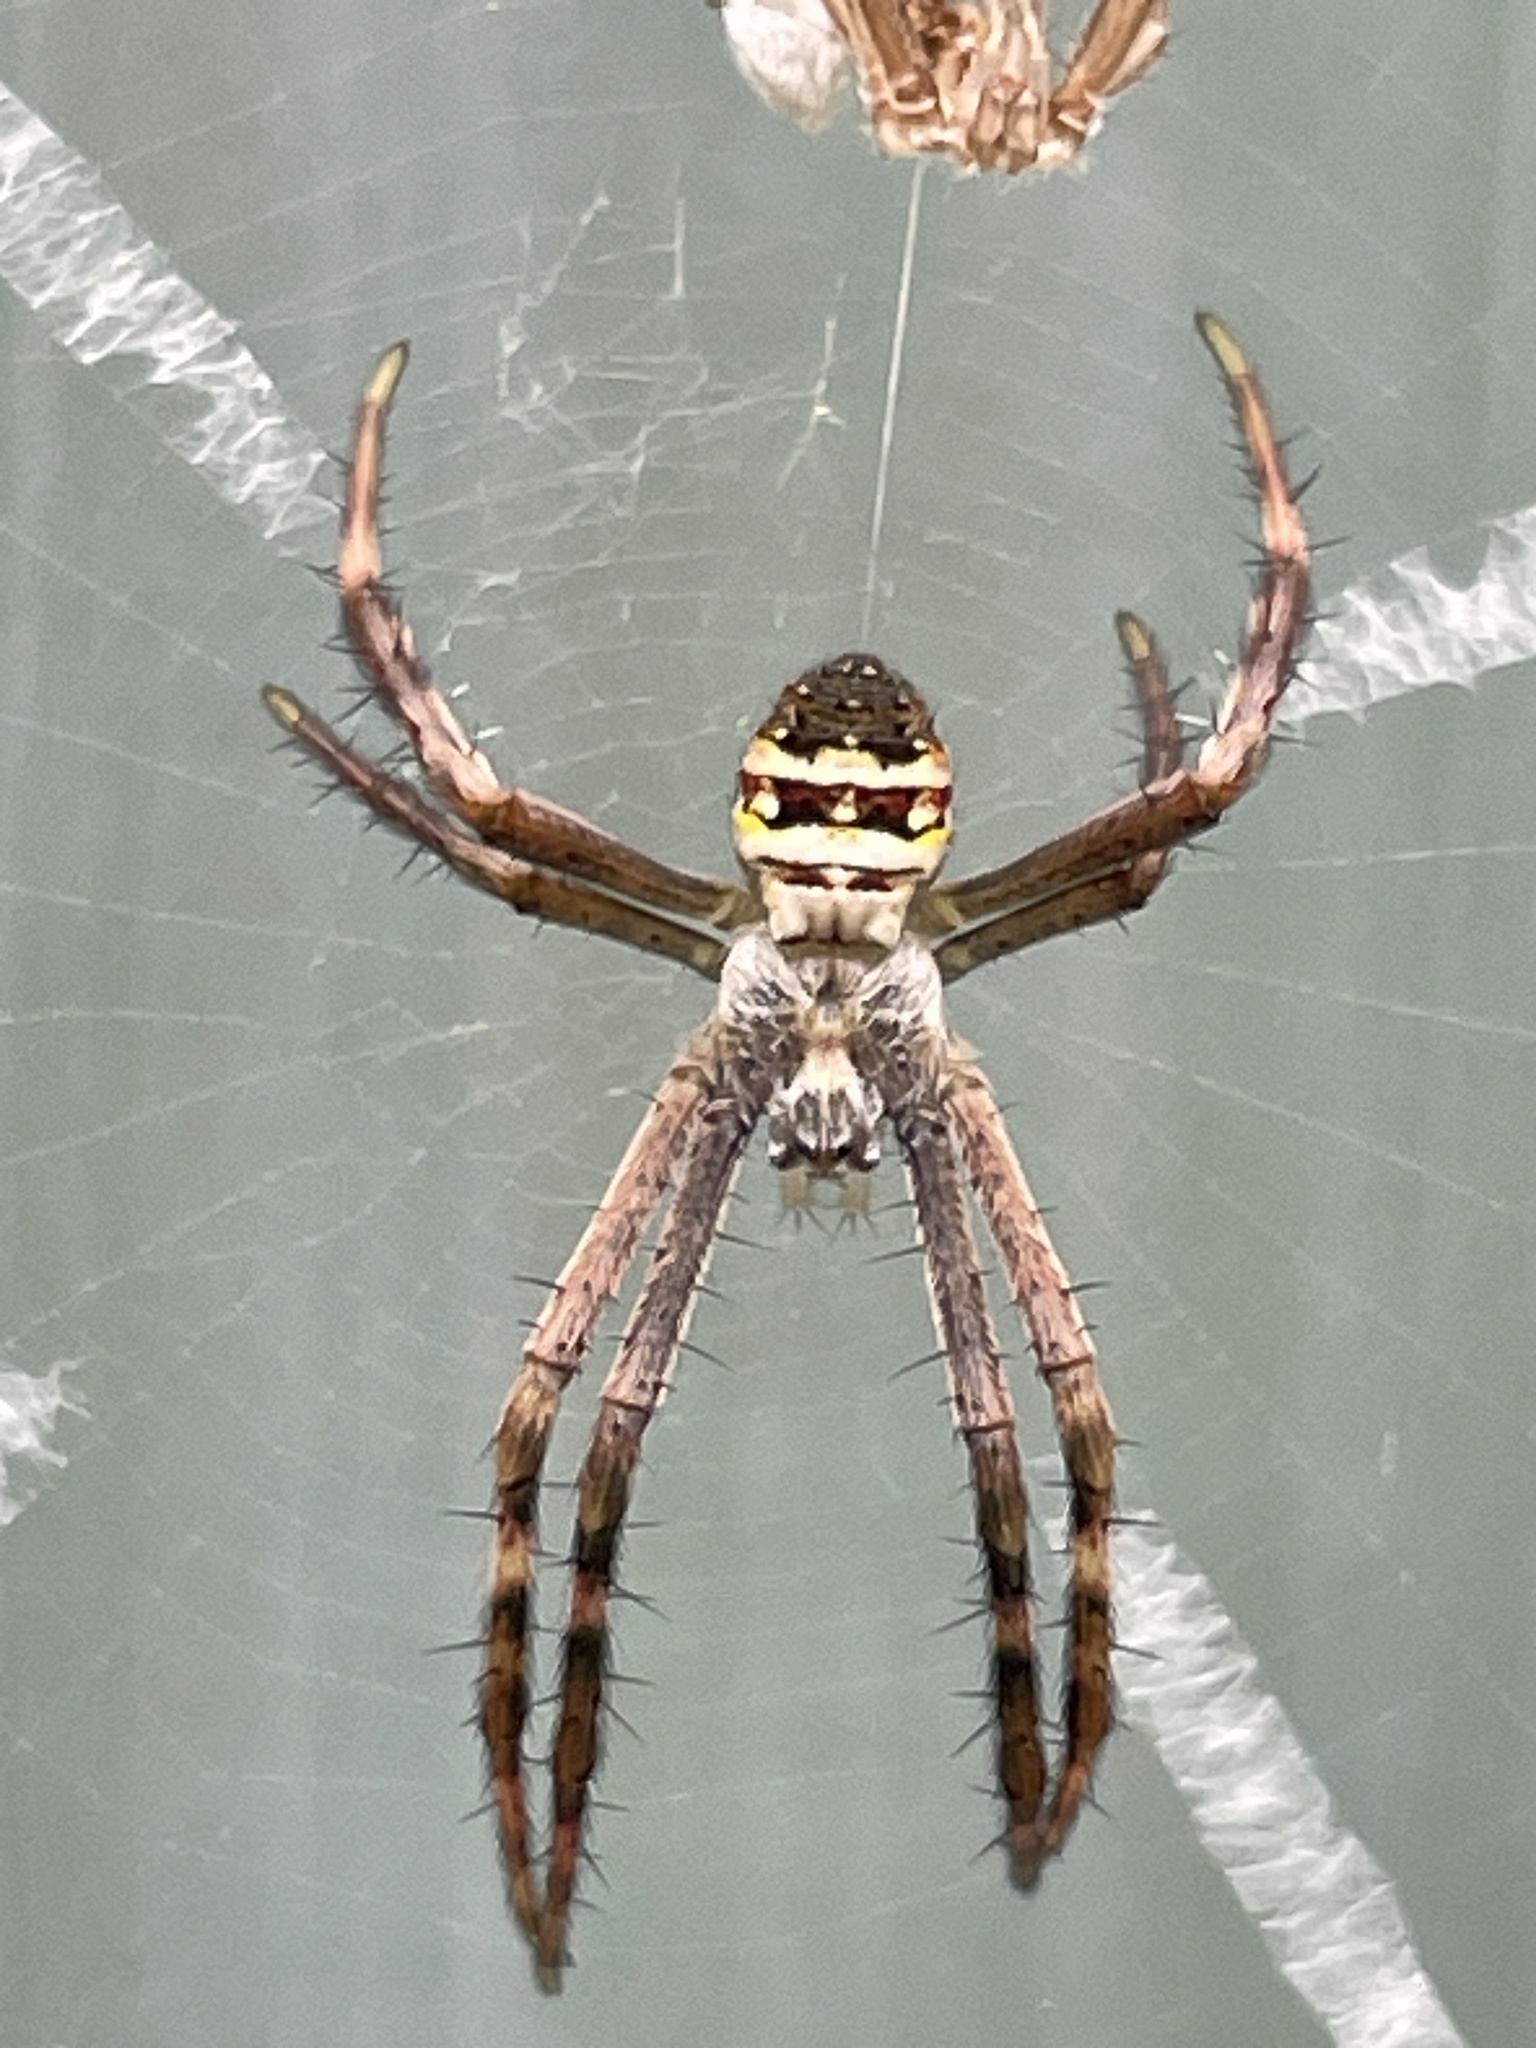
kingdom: Animalia
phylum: Arthropoda
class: Arachnida
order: Araneae
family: Araneidae
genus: Argiope
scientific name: Argiope keyserlingi
